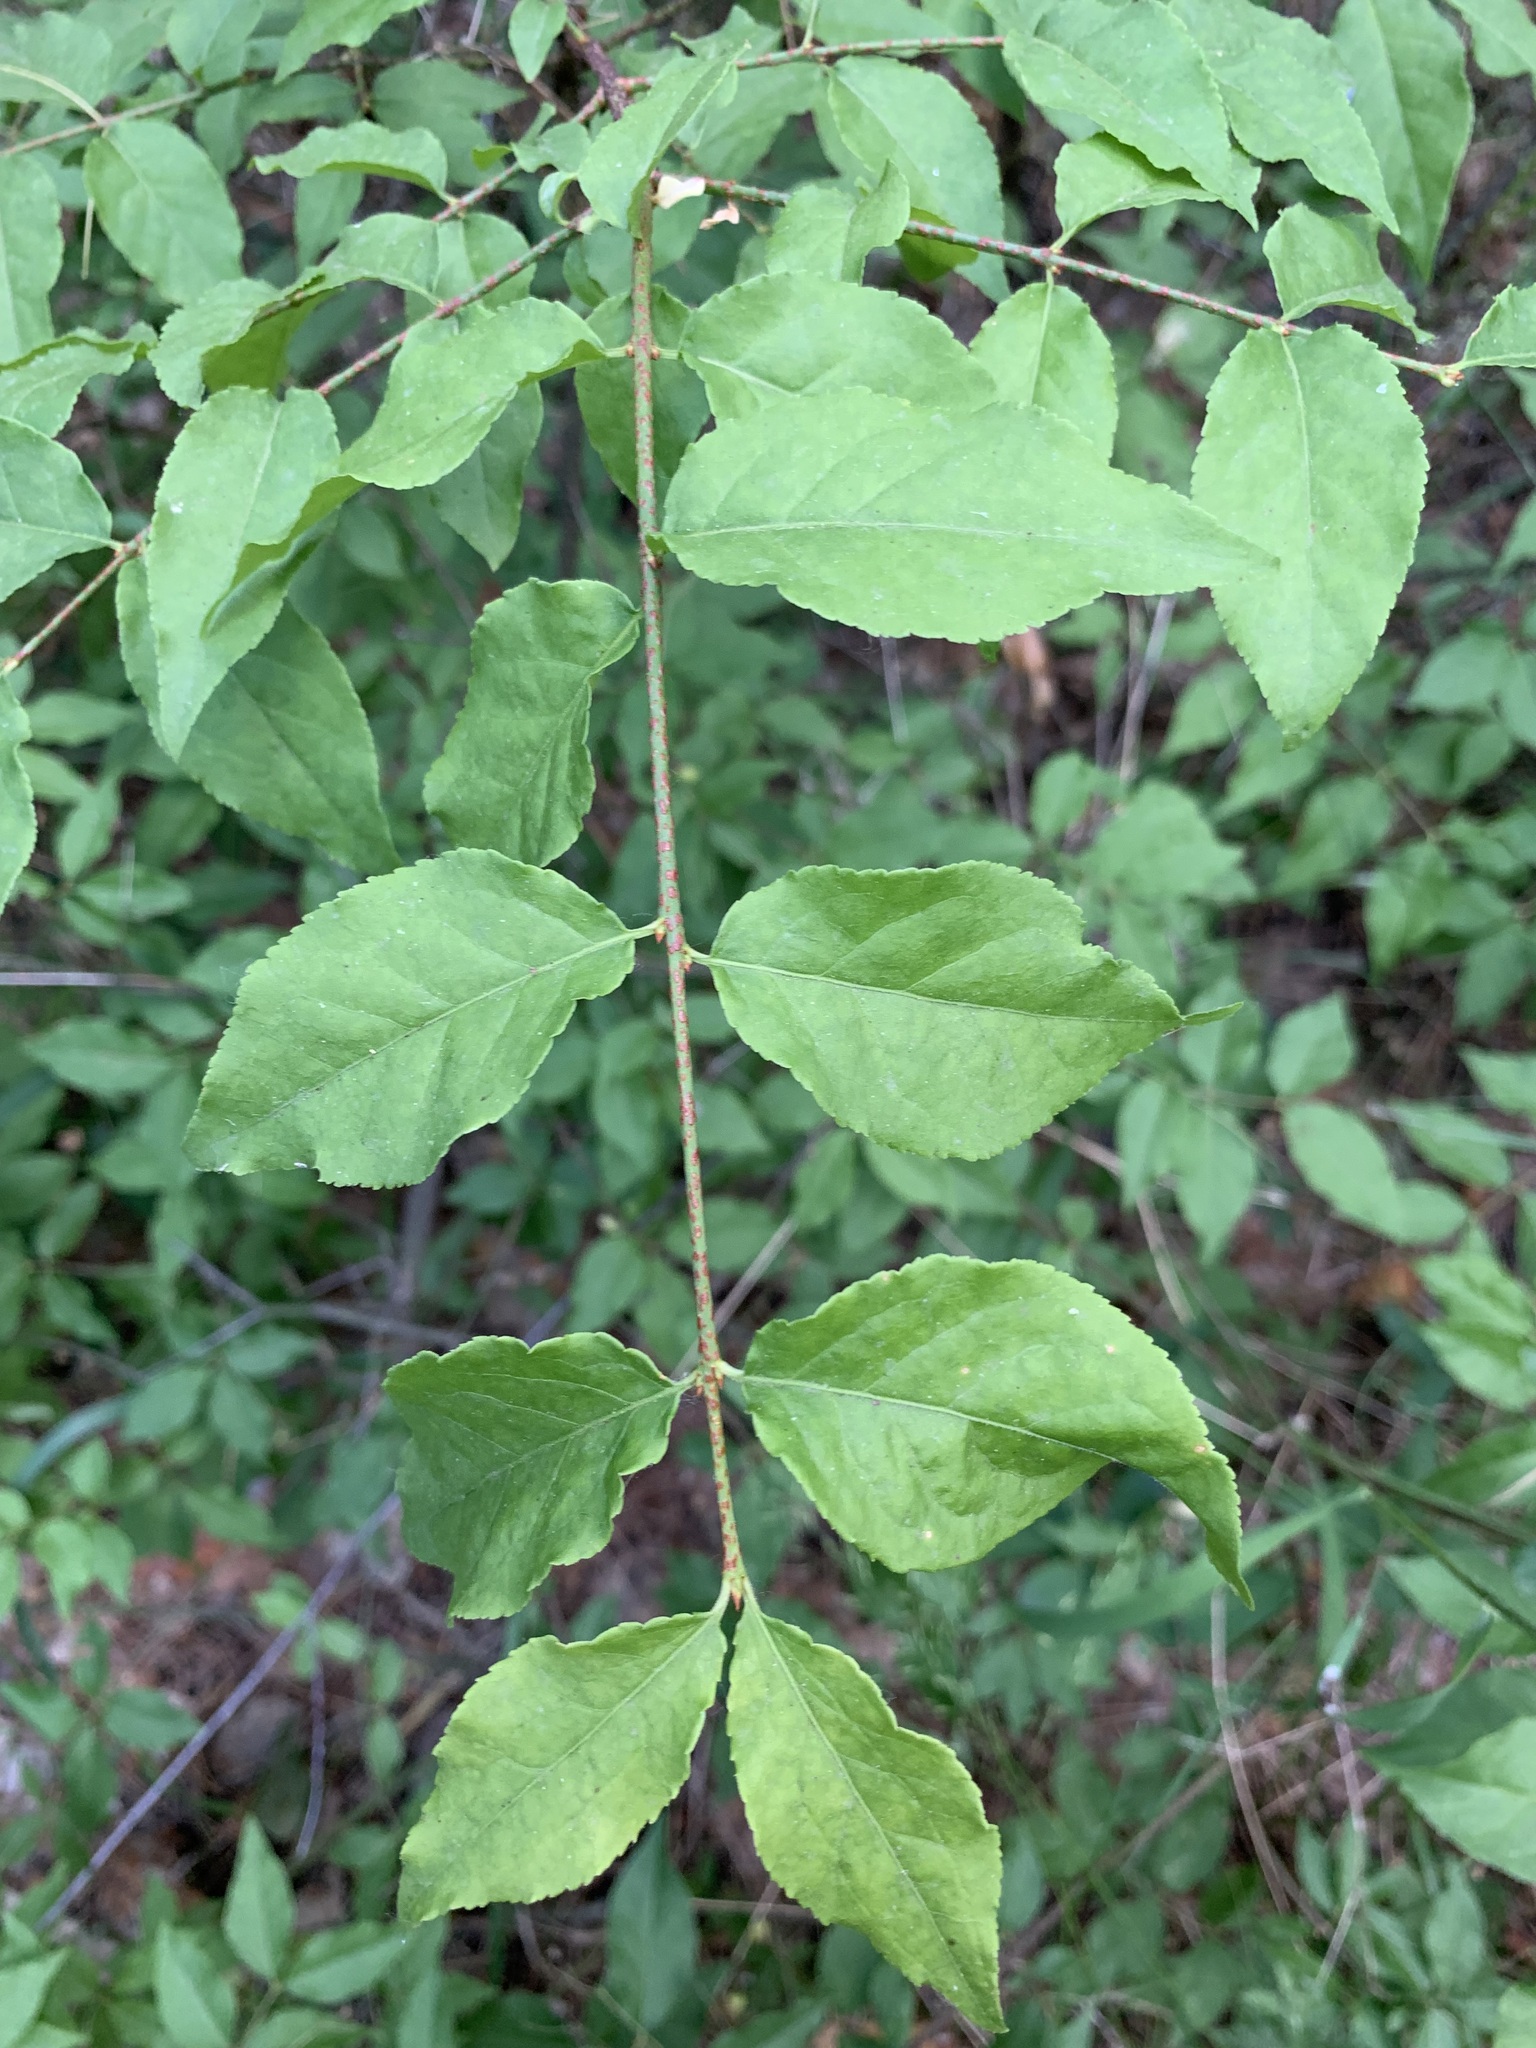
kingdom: Plantae
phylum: Tracheophyta
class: Magnoliopsida
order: Celastrales
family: Celastraceae
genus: Euonymus
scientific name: Euonymus verrucosus
